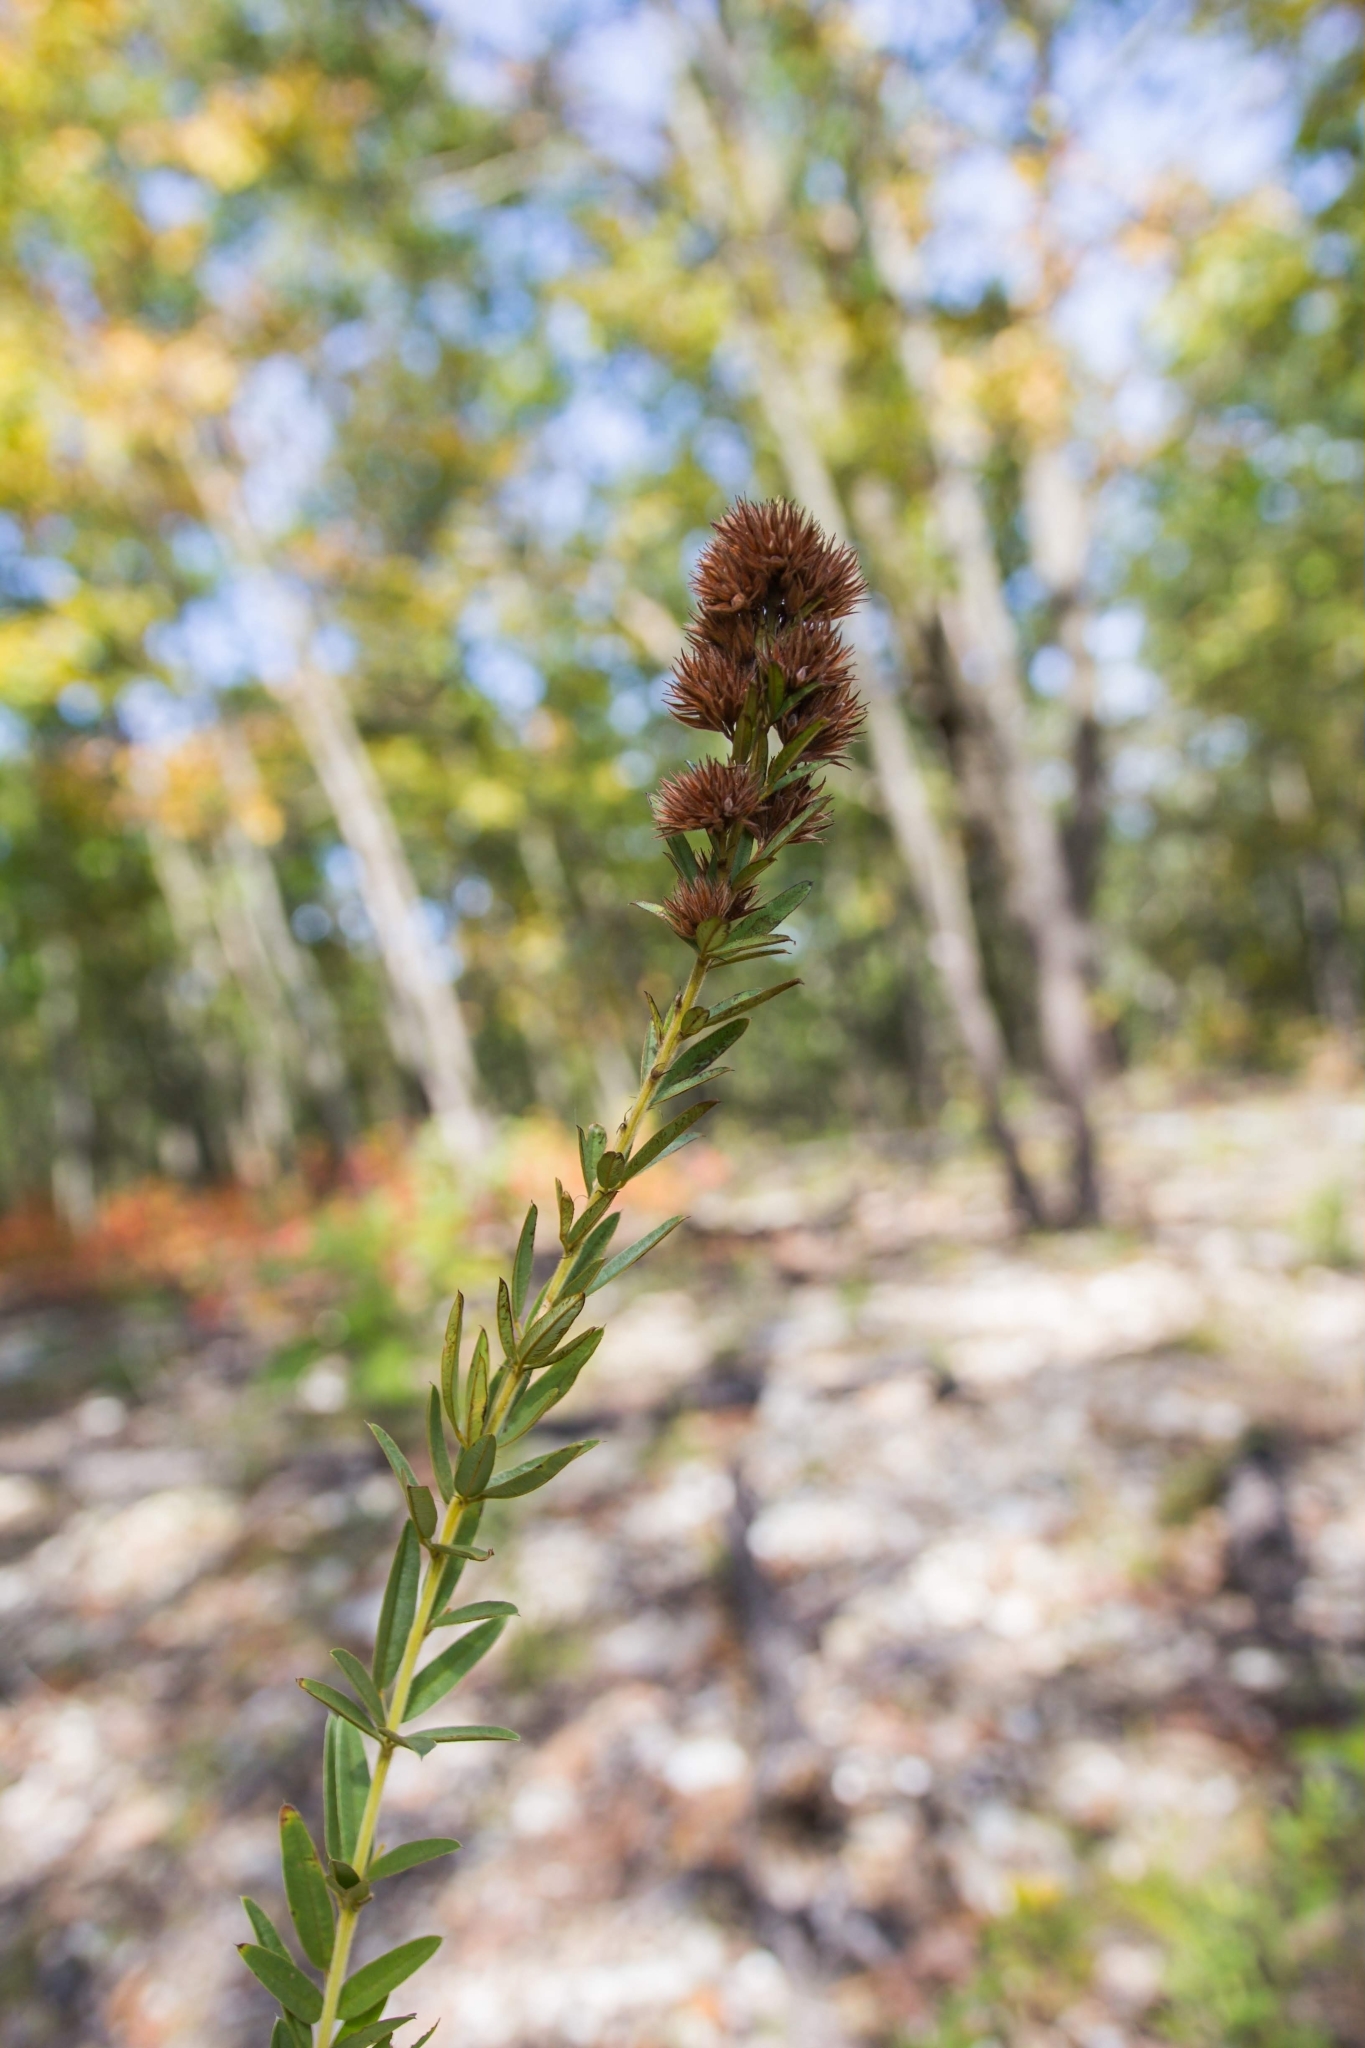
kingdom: Plantae
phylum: Tracheophyta
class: Magnoliopsida
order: Fabales
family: Fabaceae
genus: Lespedeza
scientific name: Lespedeza capitata
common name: Dusty clover
